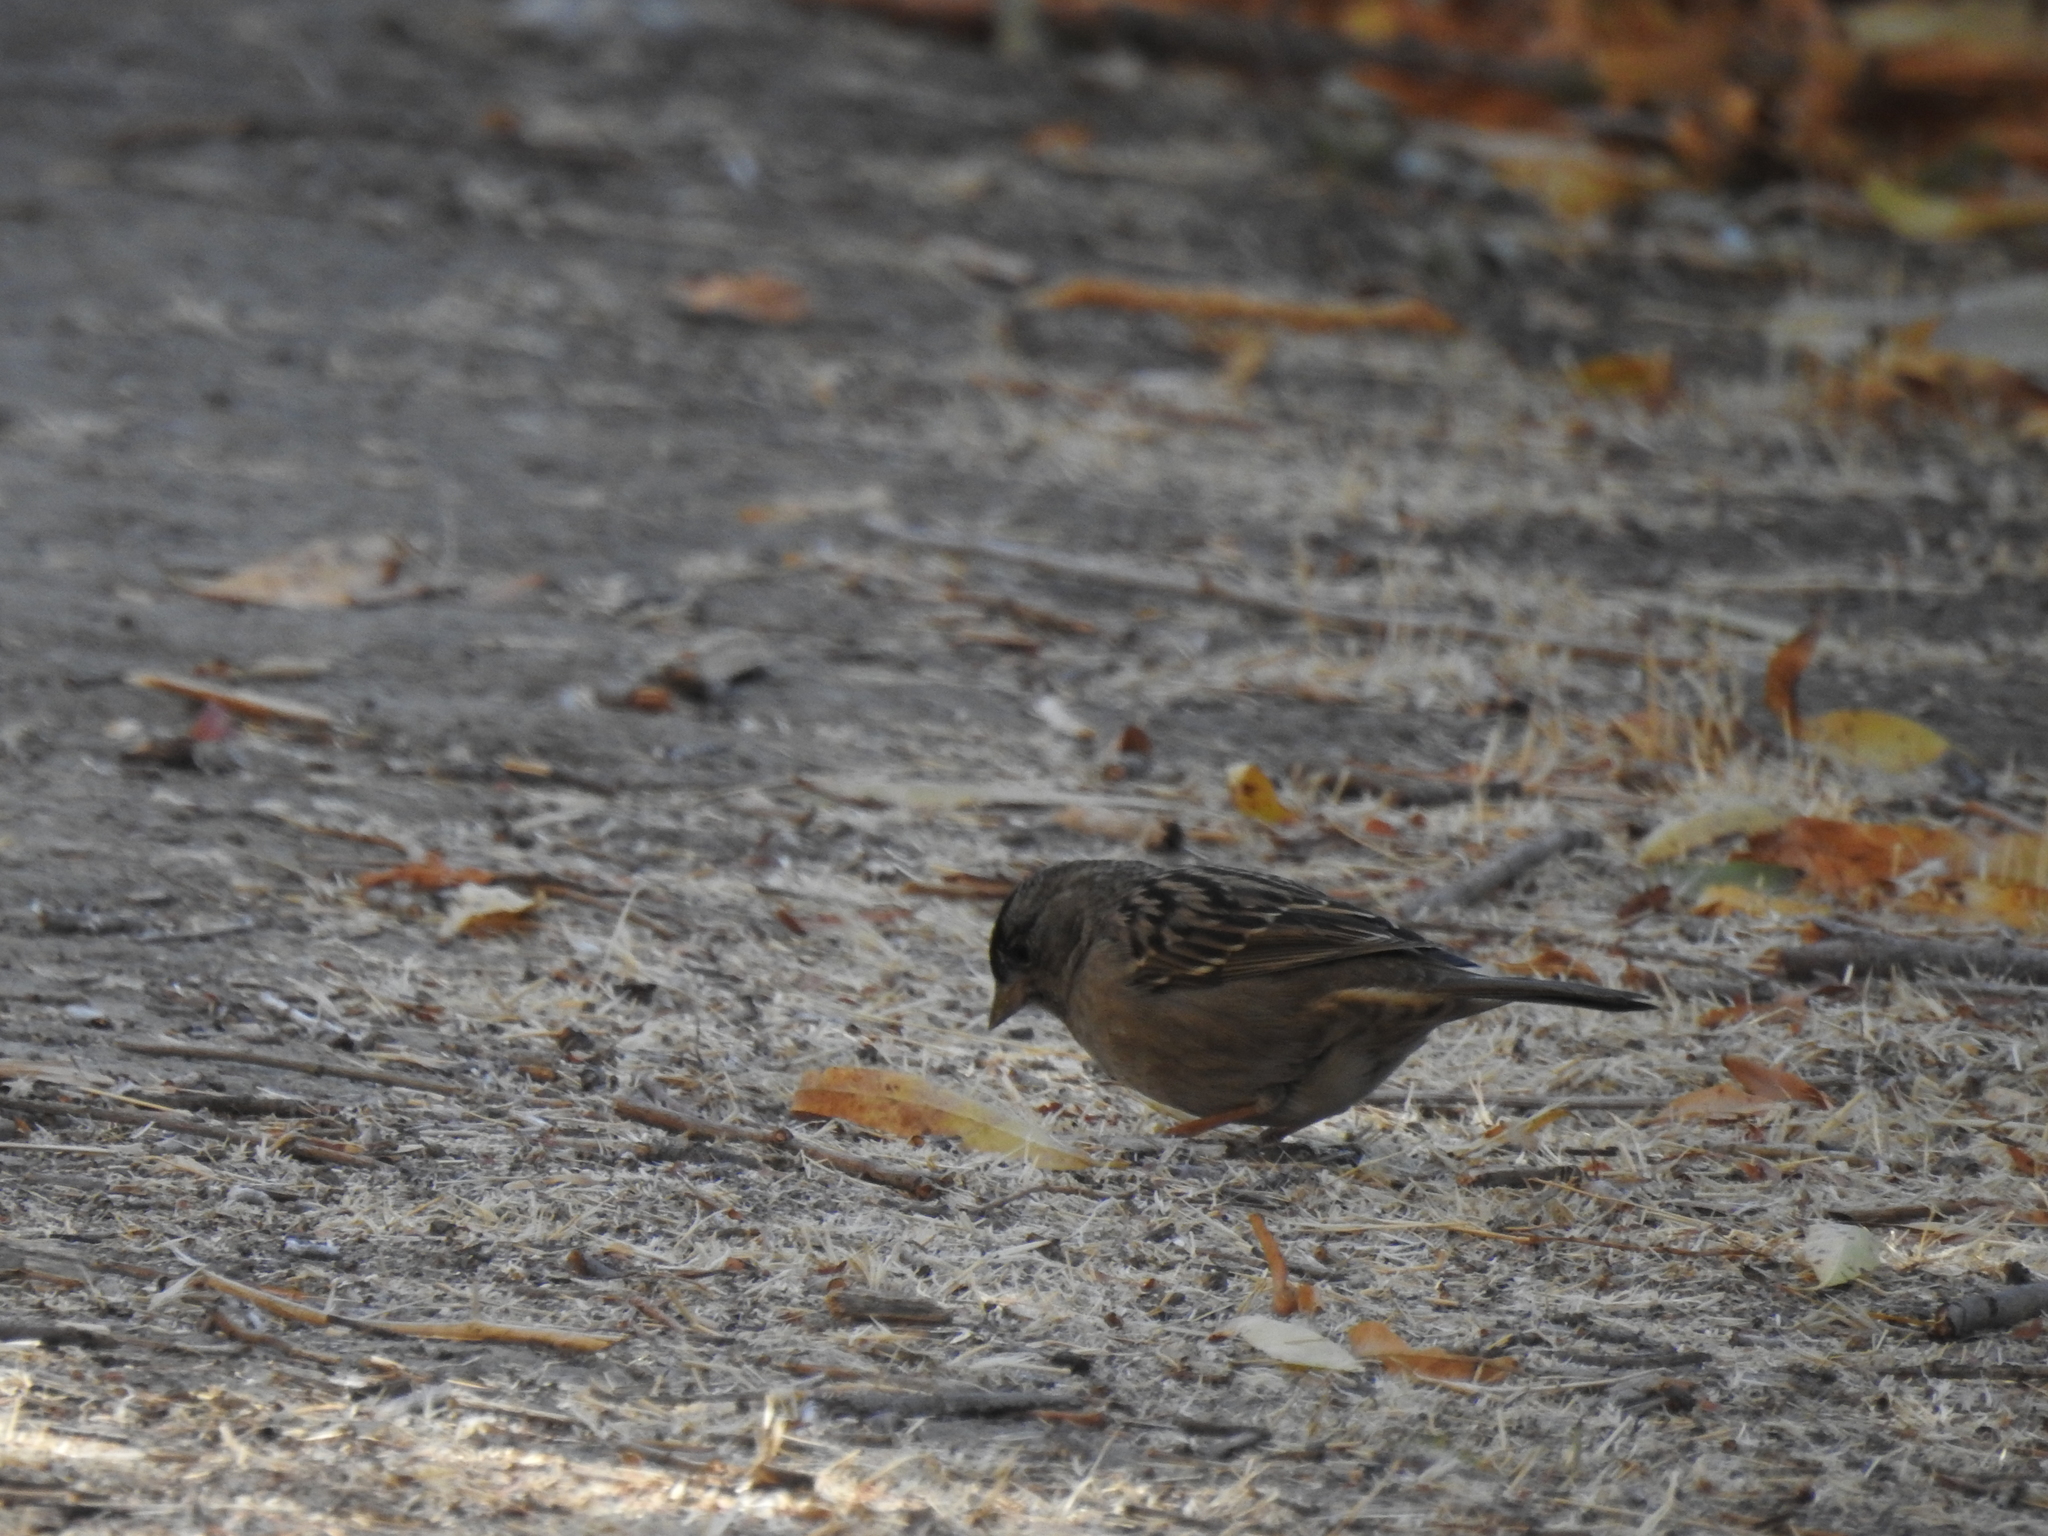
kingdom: Animalia
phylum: Chordata
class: Aves
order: Passeriformes
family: Passerellidae
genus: Zonotrichia
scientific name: Zonotrichia atricapilla
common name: Golden-crowned sparrow
